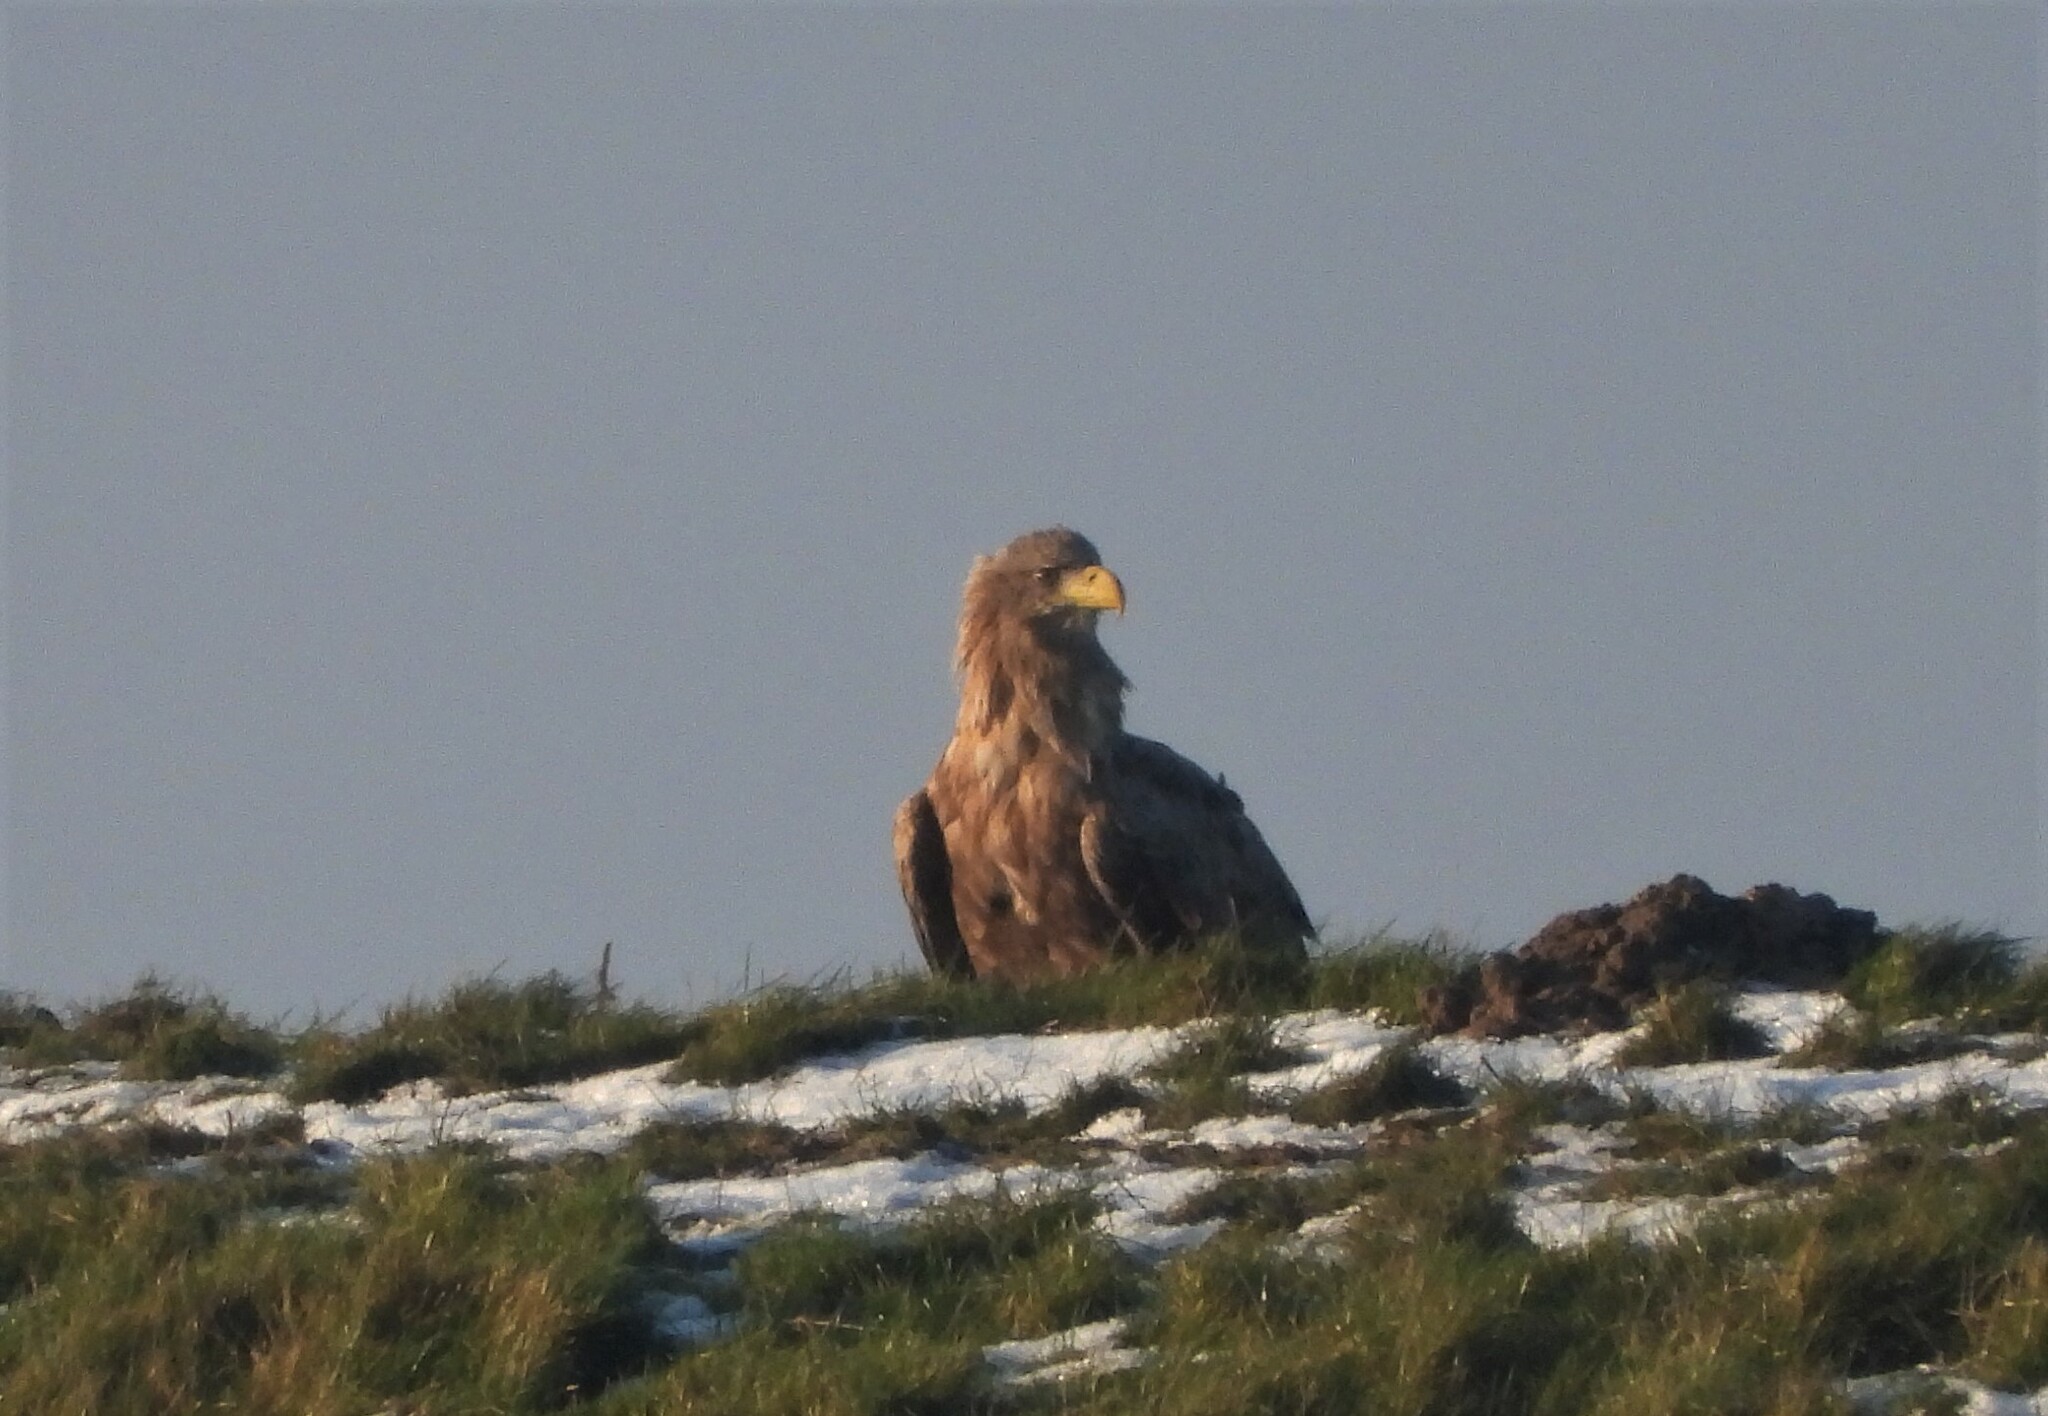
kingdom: Animalia
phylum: Chordata
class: Aves
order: Accipitriformes
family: Accipitridae
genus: Haliaeetus
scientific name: Haliaeetus albicilla
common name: White-tailed eagle
